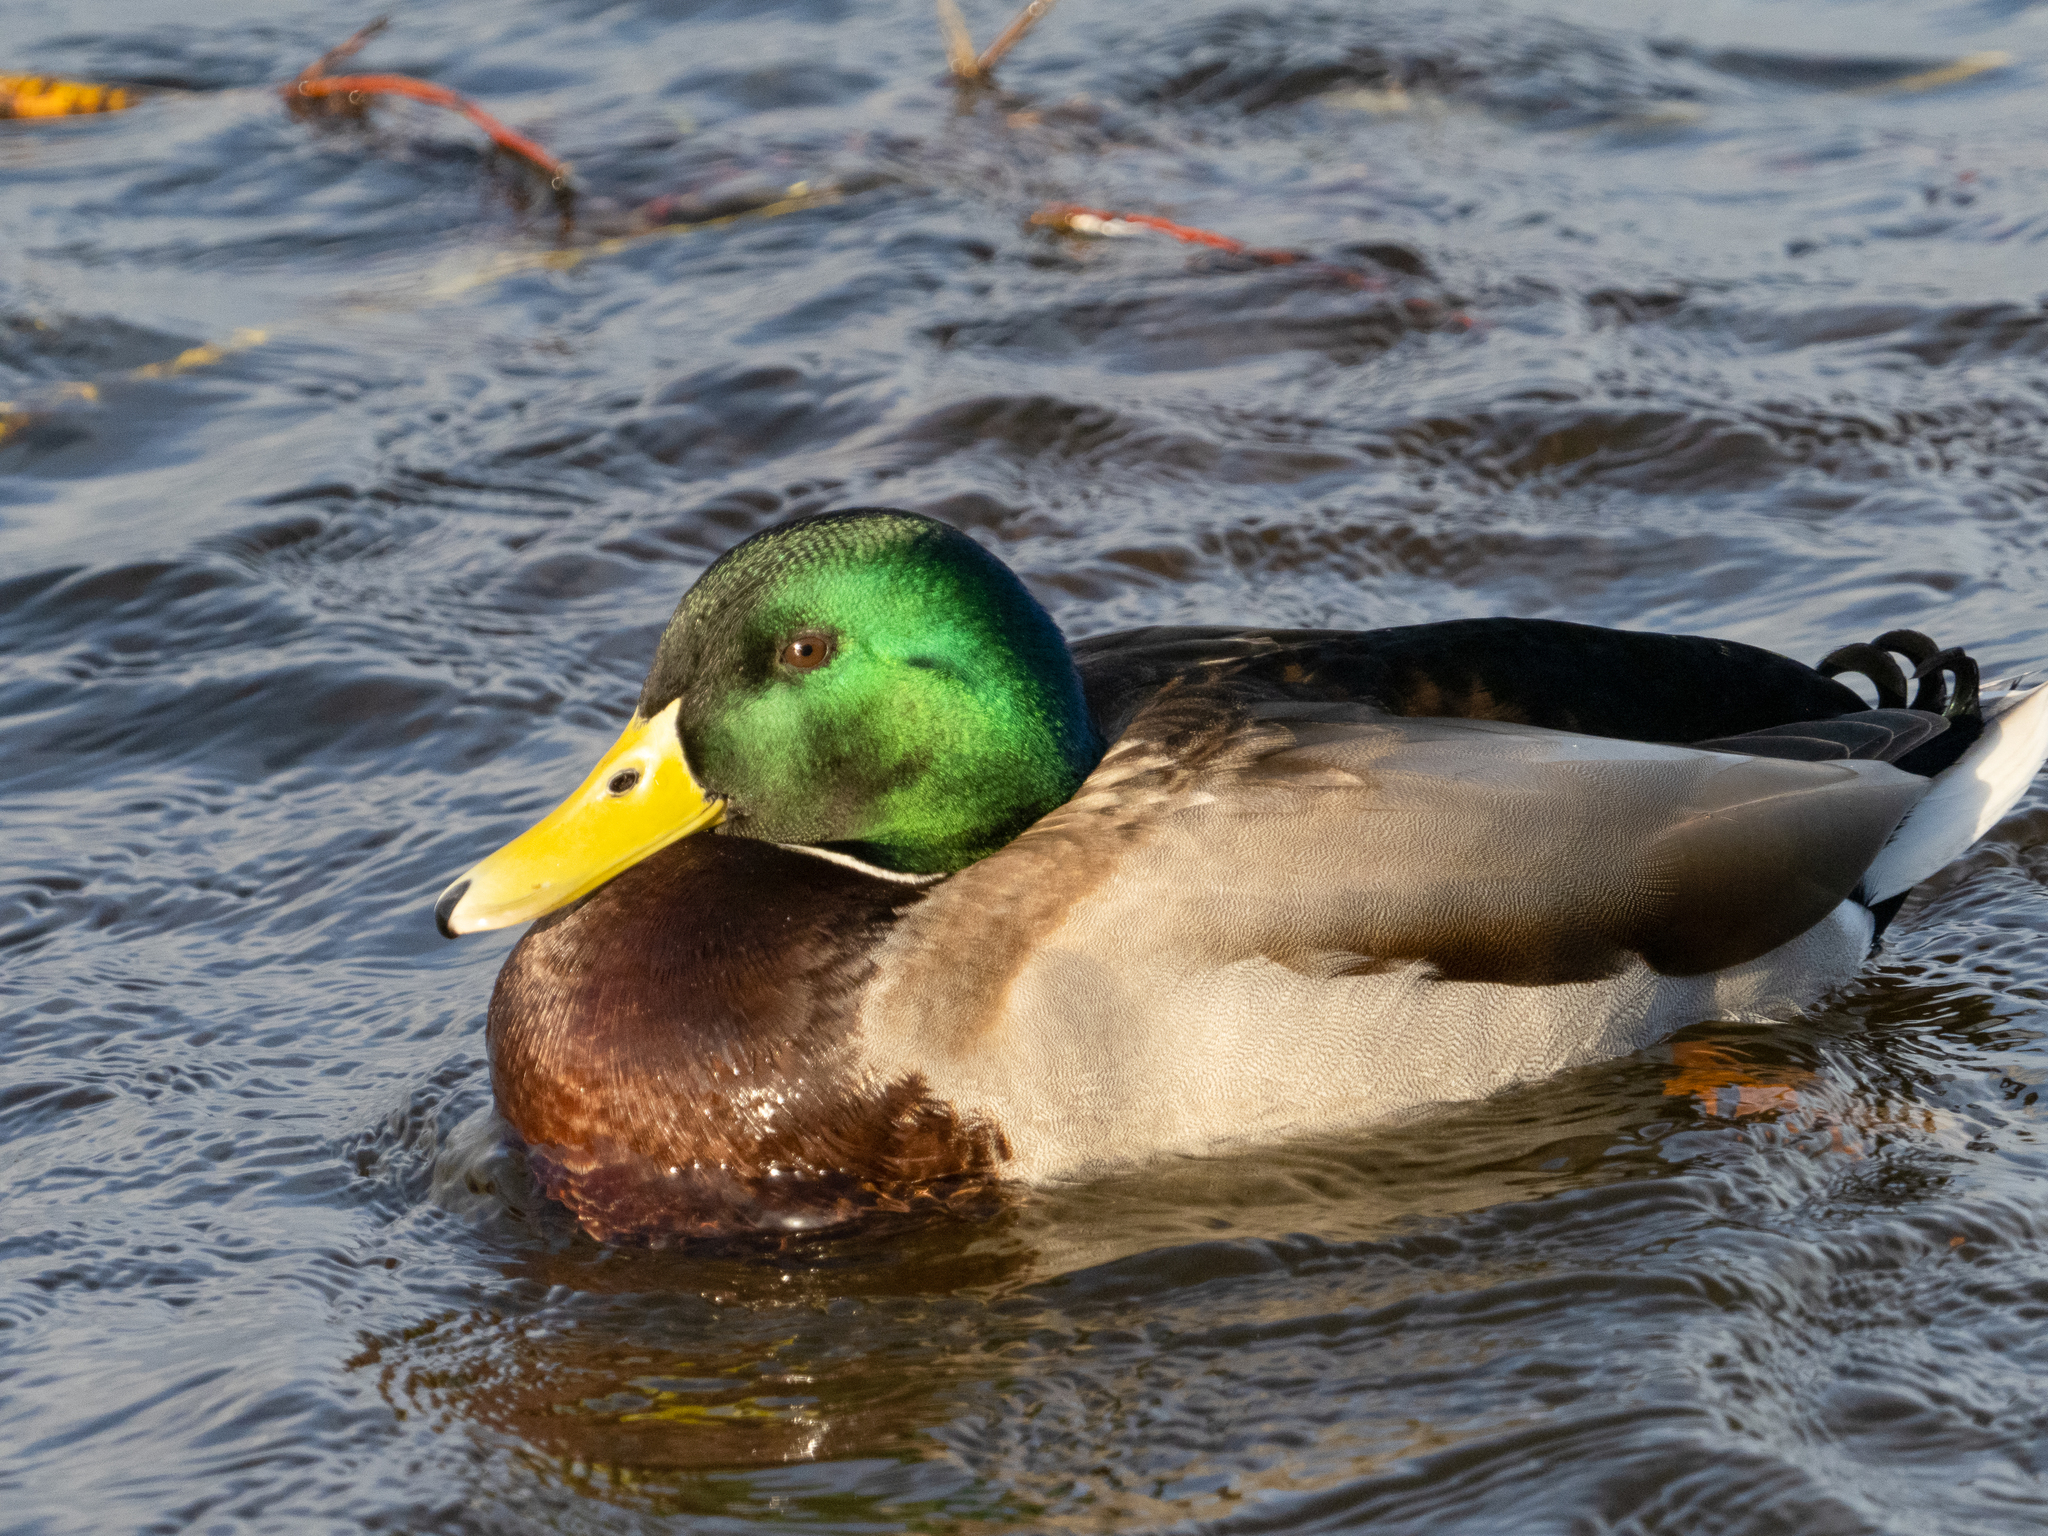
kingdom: Animalia
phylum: Chordata
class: Aves
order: Anseriformes
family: Anatidae
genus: Anas
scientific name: Anas platyrhynchos
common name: Mallard
